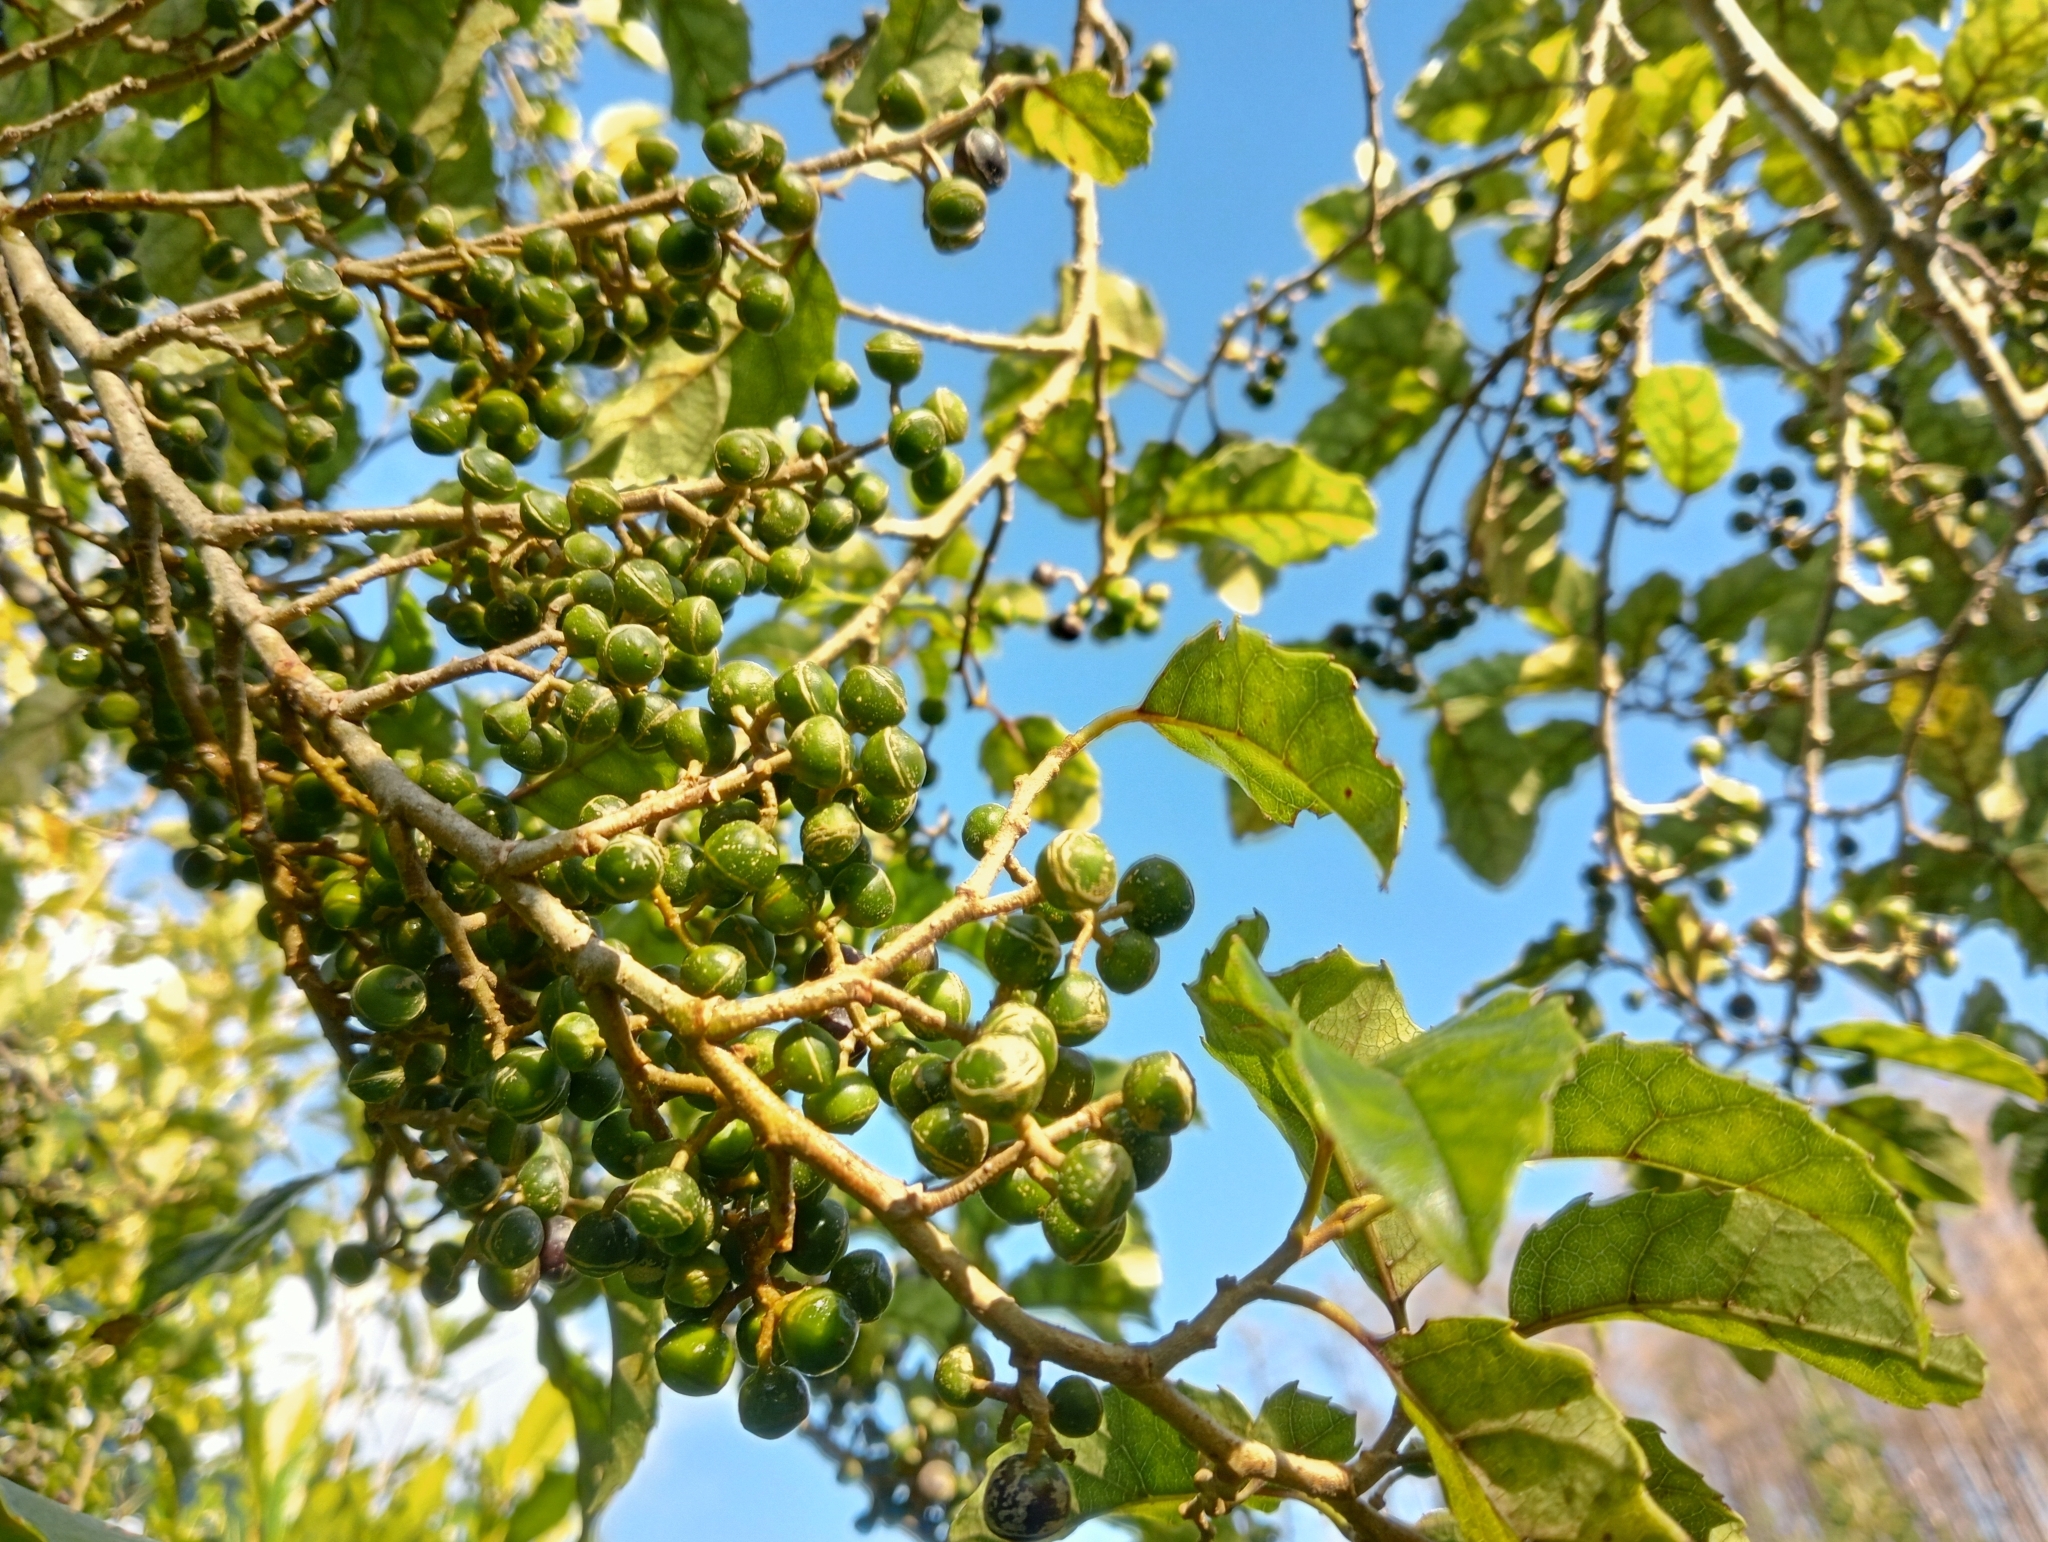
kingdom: Plantae
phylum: Tracheophyta
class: Magnoliopsida
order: Asterales
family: Rousseaceae
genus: Carpodetus
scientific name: Carpodetus serratus
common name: White mapau
